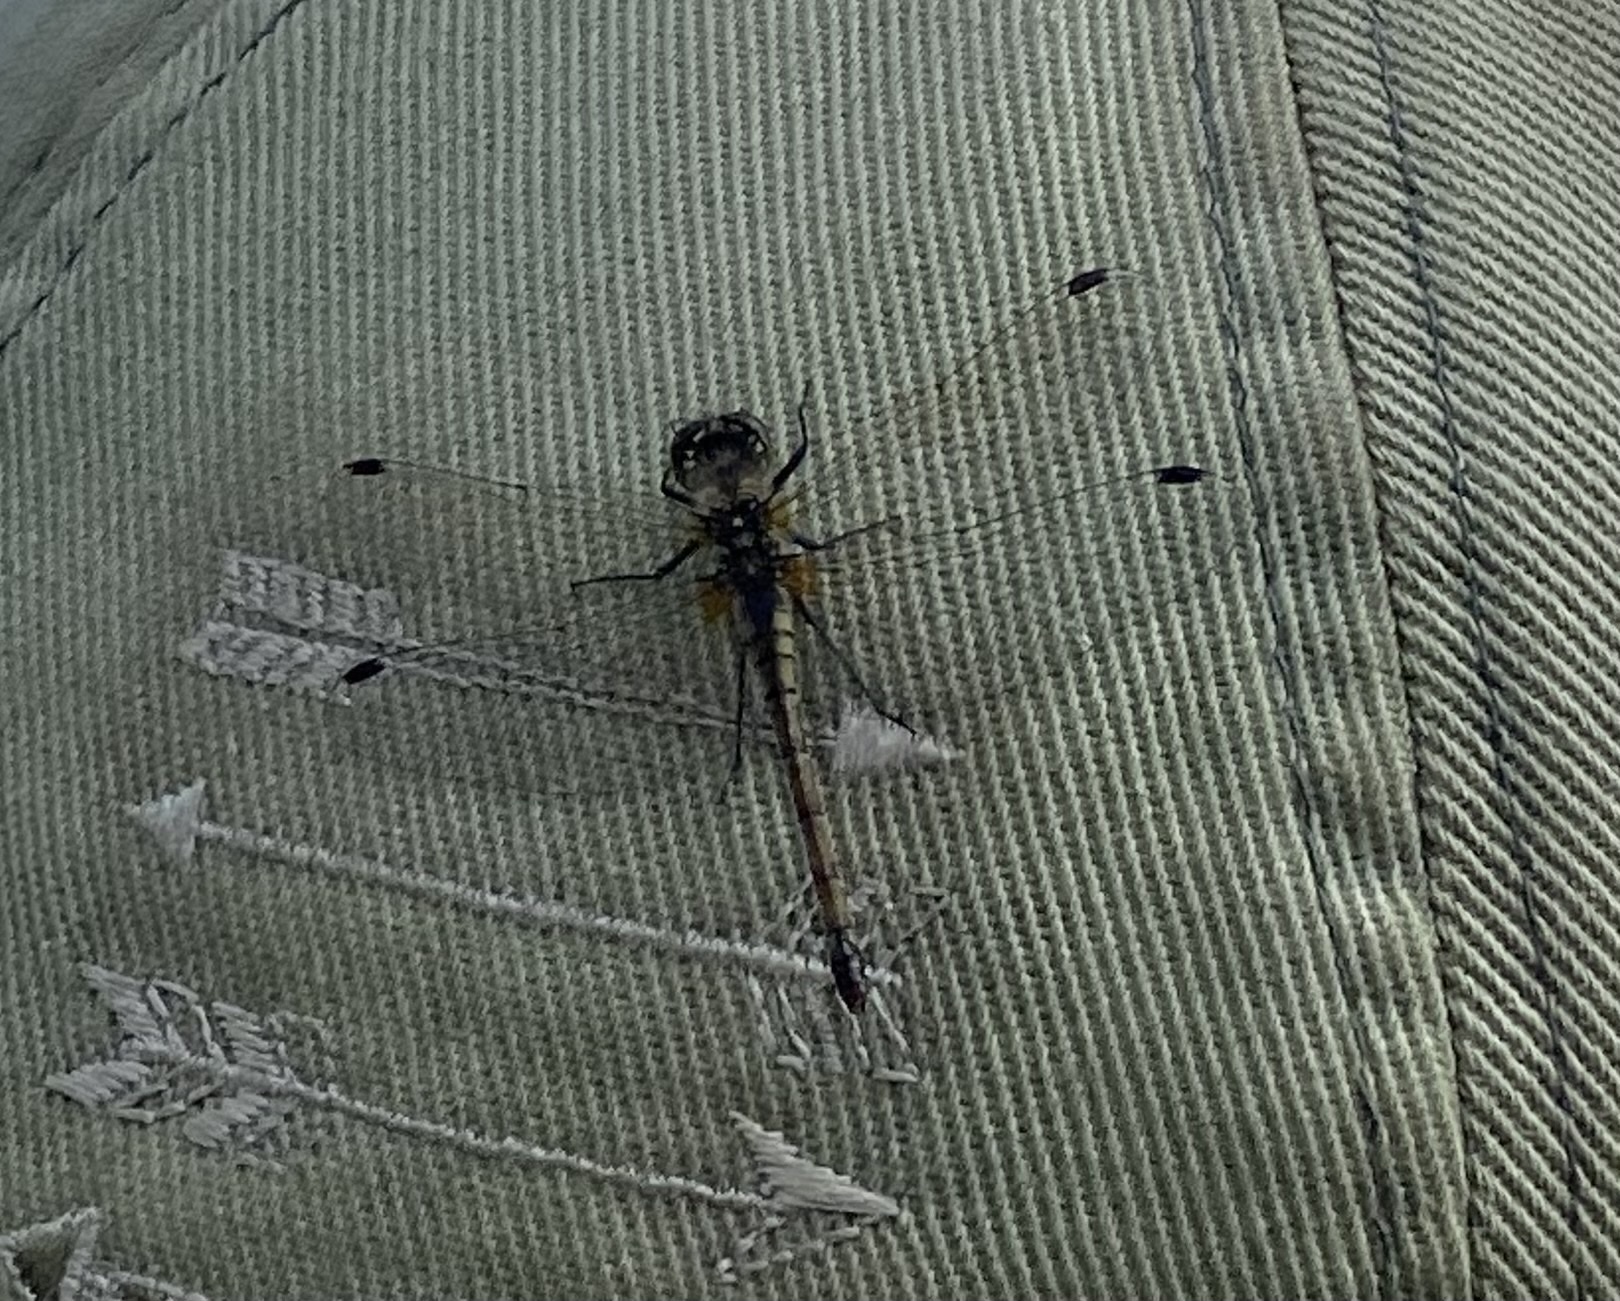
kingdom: Animalia
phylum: Arthropoda
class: Insecta
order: Odonata
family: Libellulidae
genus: Sympetrum
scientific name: Sympetrum danae
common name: Black darter
